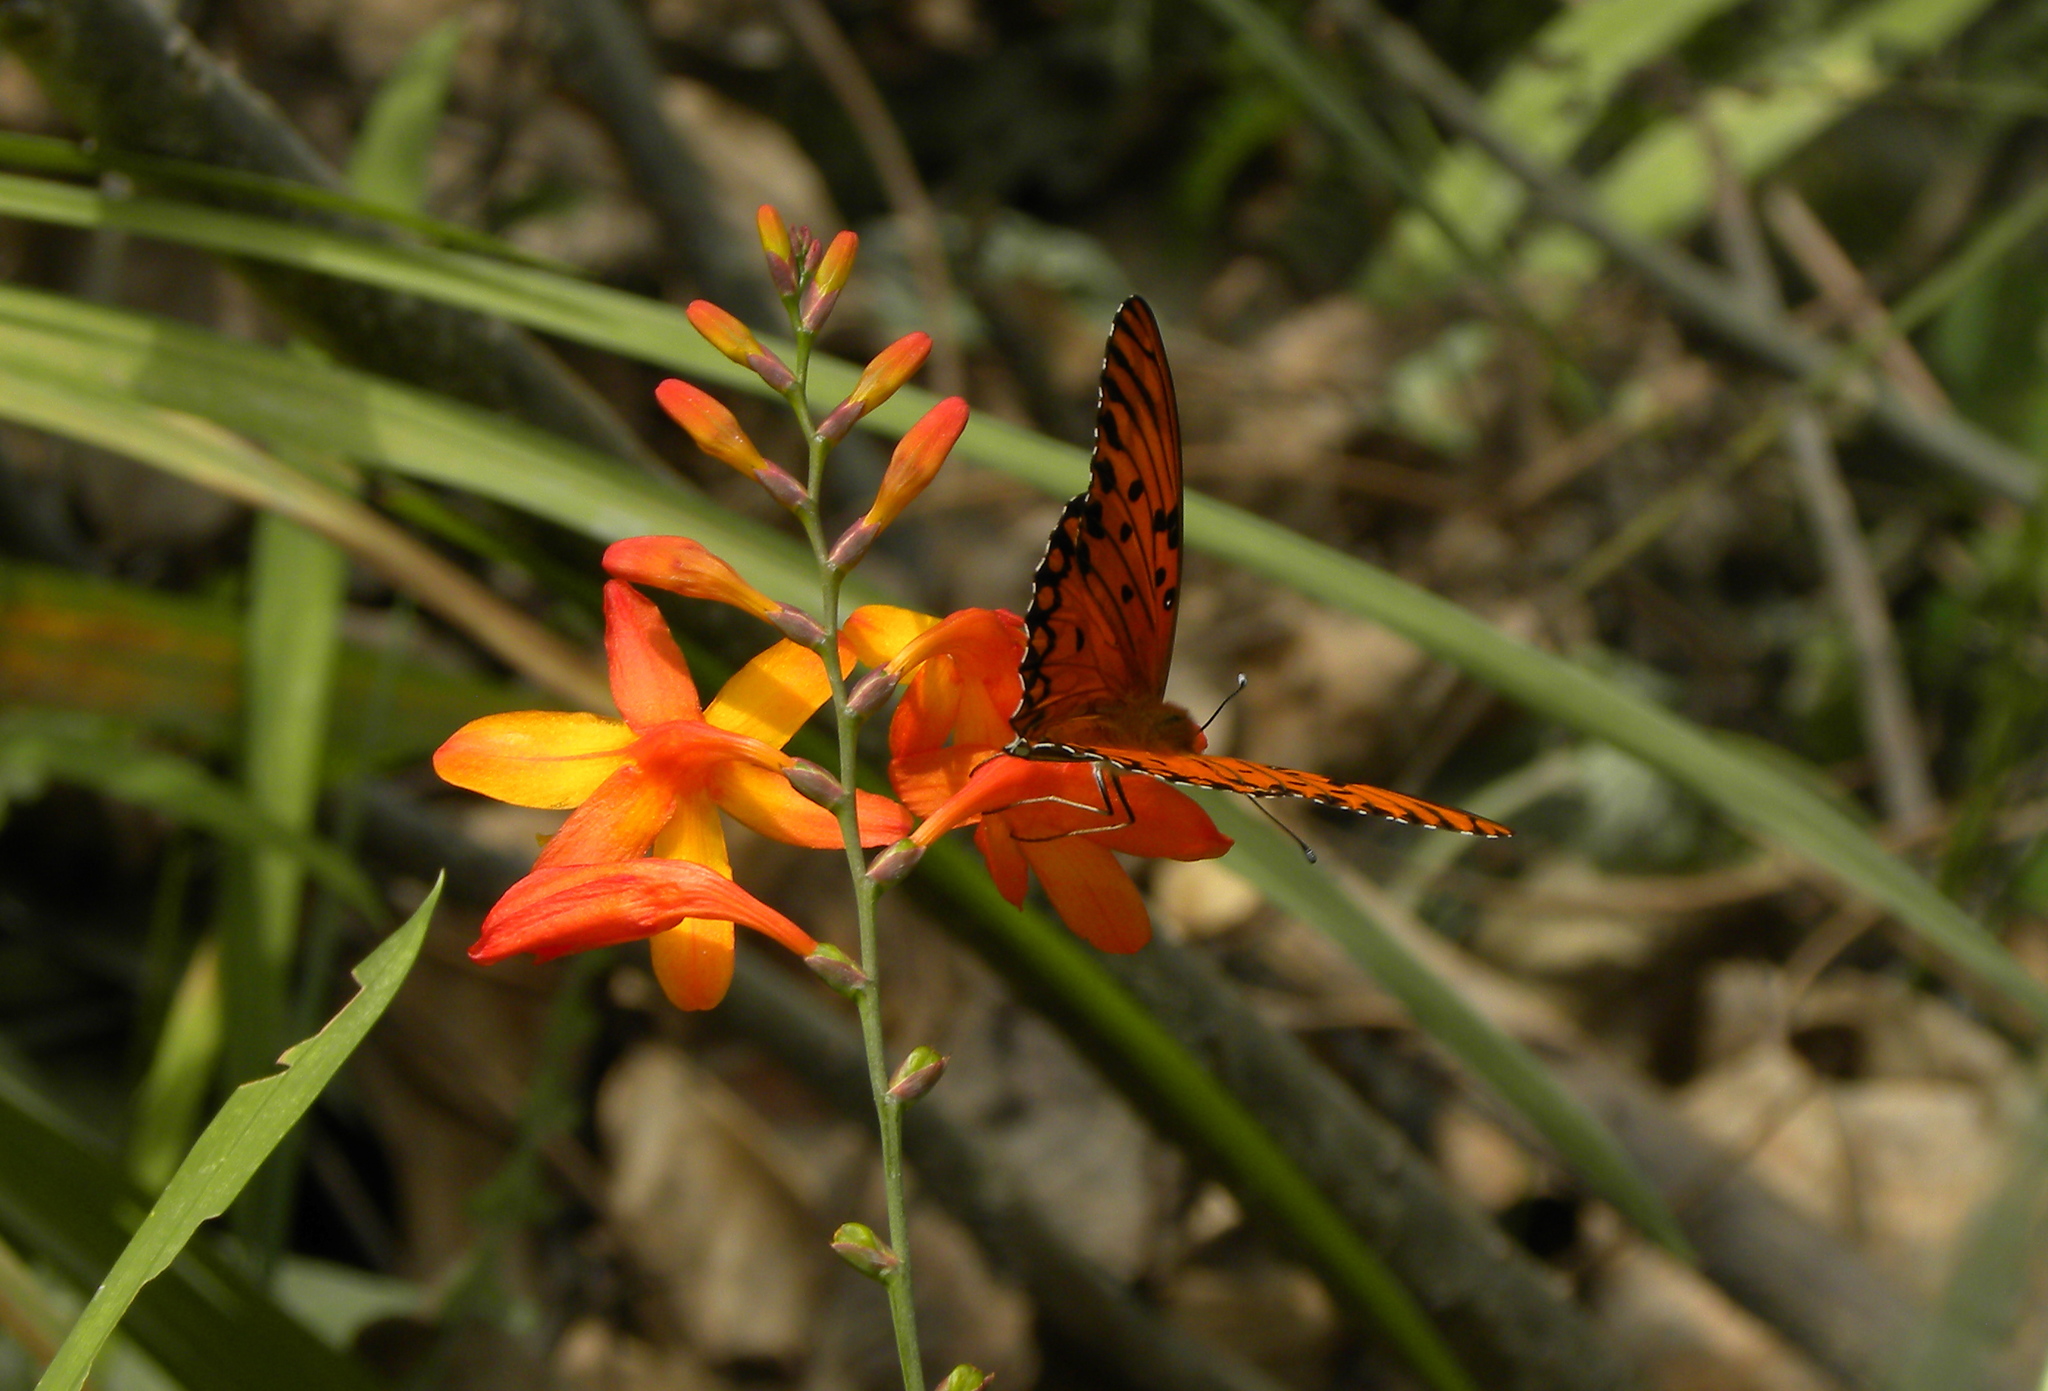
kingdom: Animalia
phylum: Arthropoda
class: Insecta
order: Lepidoptera
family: Nymphalidae
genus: Dione
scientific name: Dione vanillae
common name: Gulf fritillary
